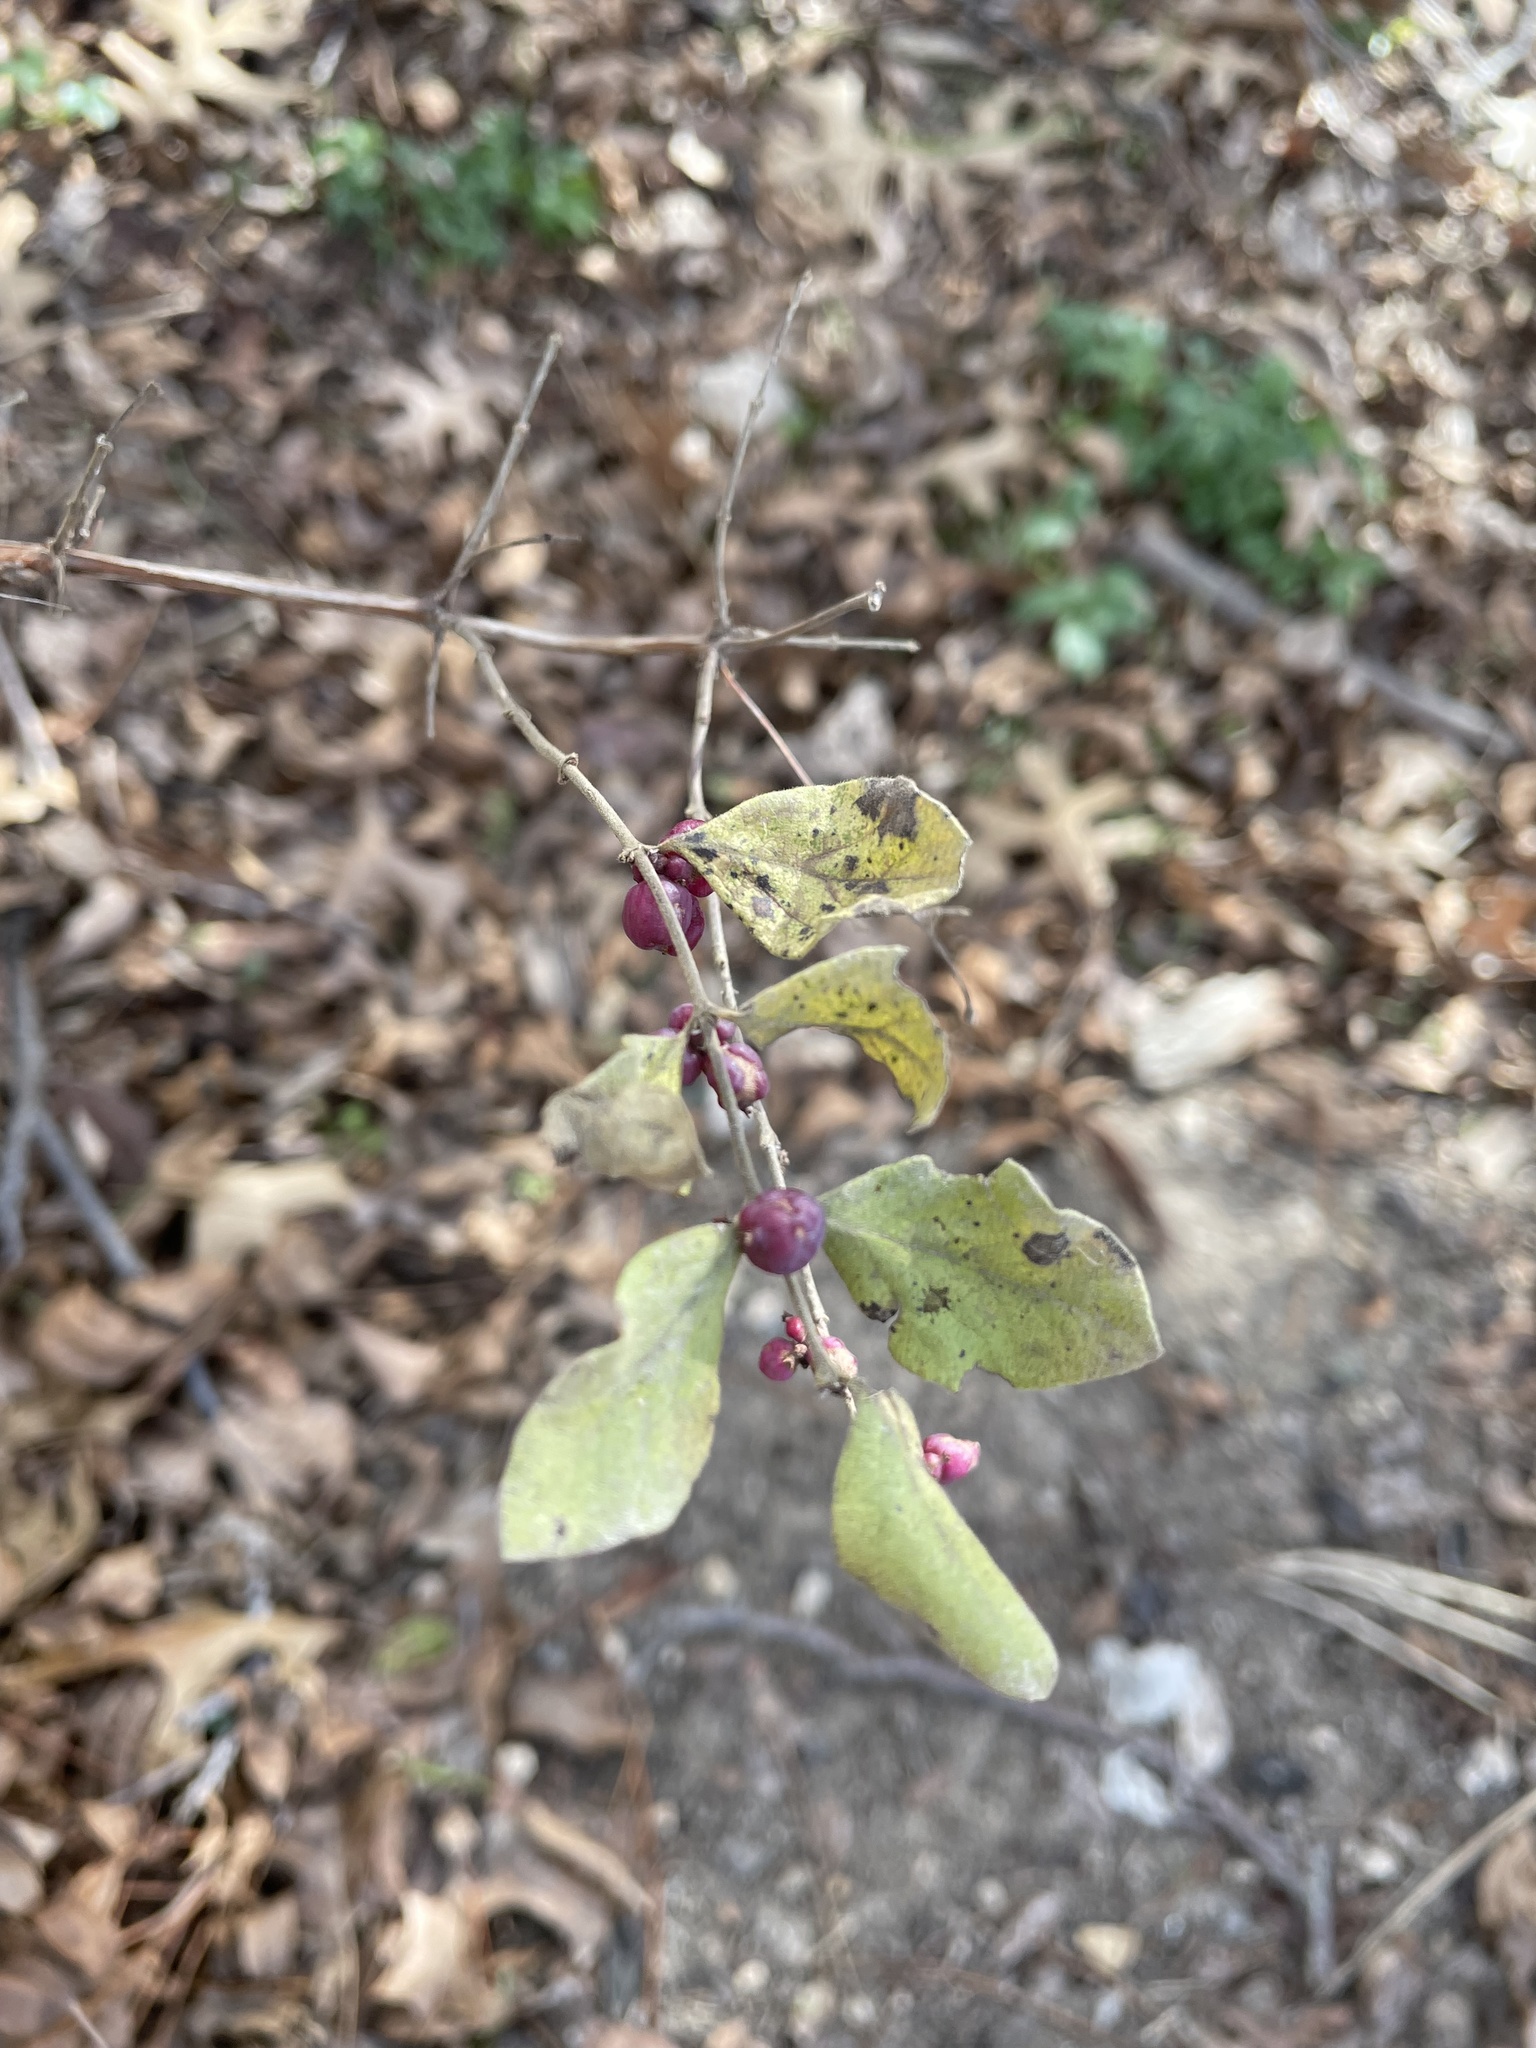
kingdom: Plantae
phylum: Tracheophyta
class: Magnoliopsida
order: Dipsacales
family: Caprifoliaceae
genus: Symphoricarpos
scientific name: Symphoricarpos orbiculatus
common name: Coralberry
